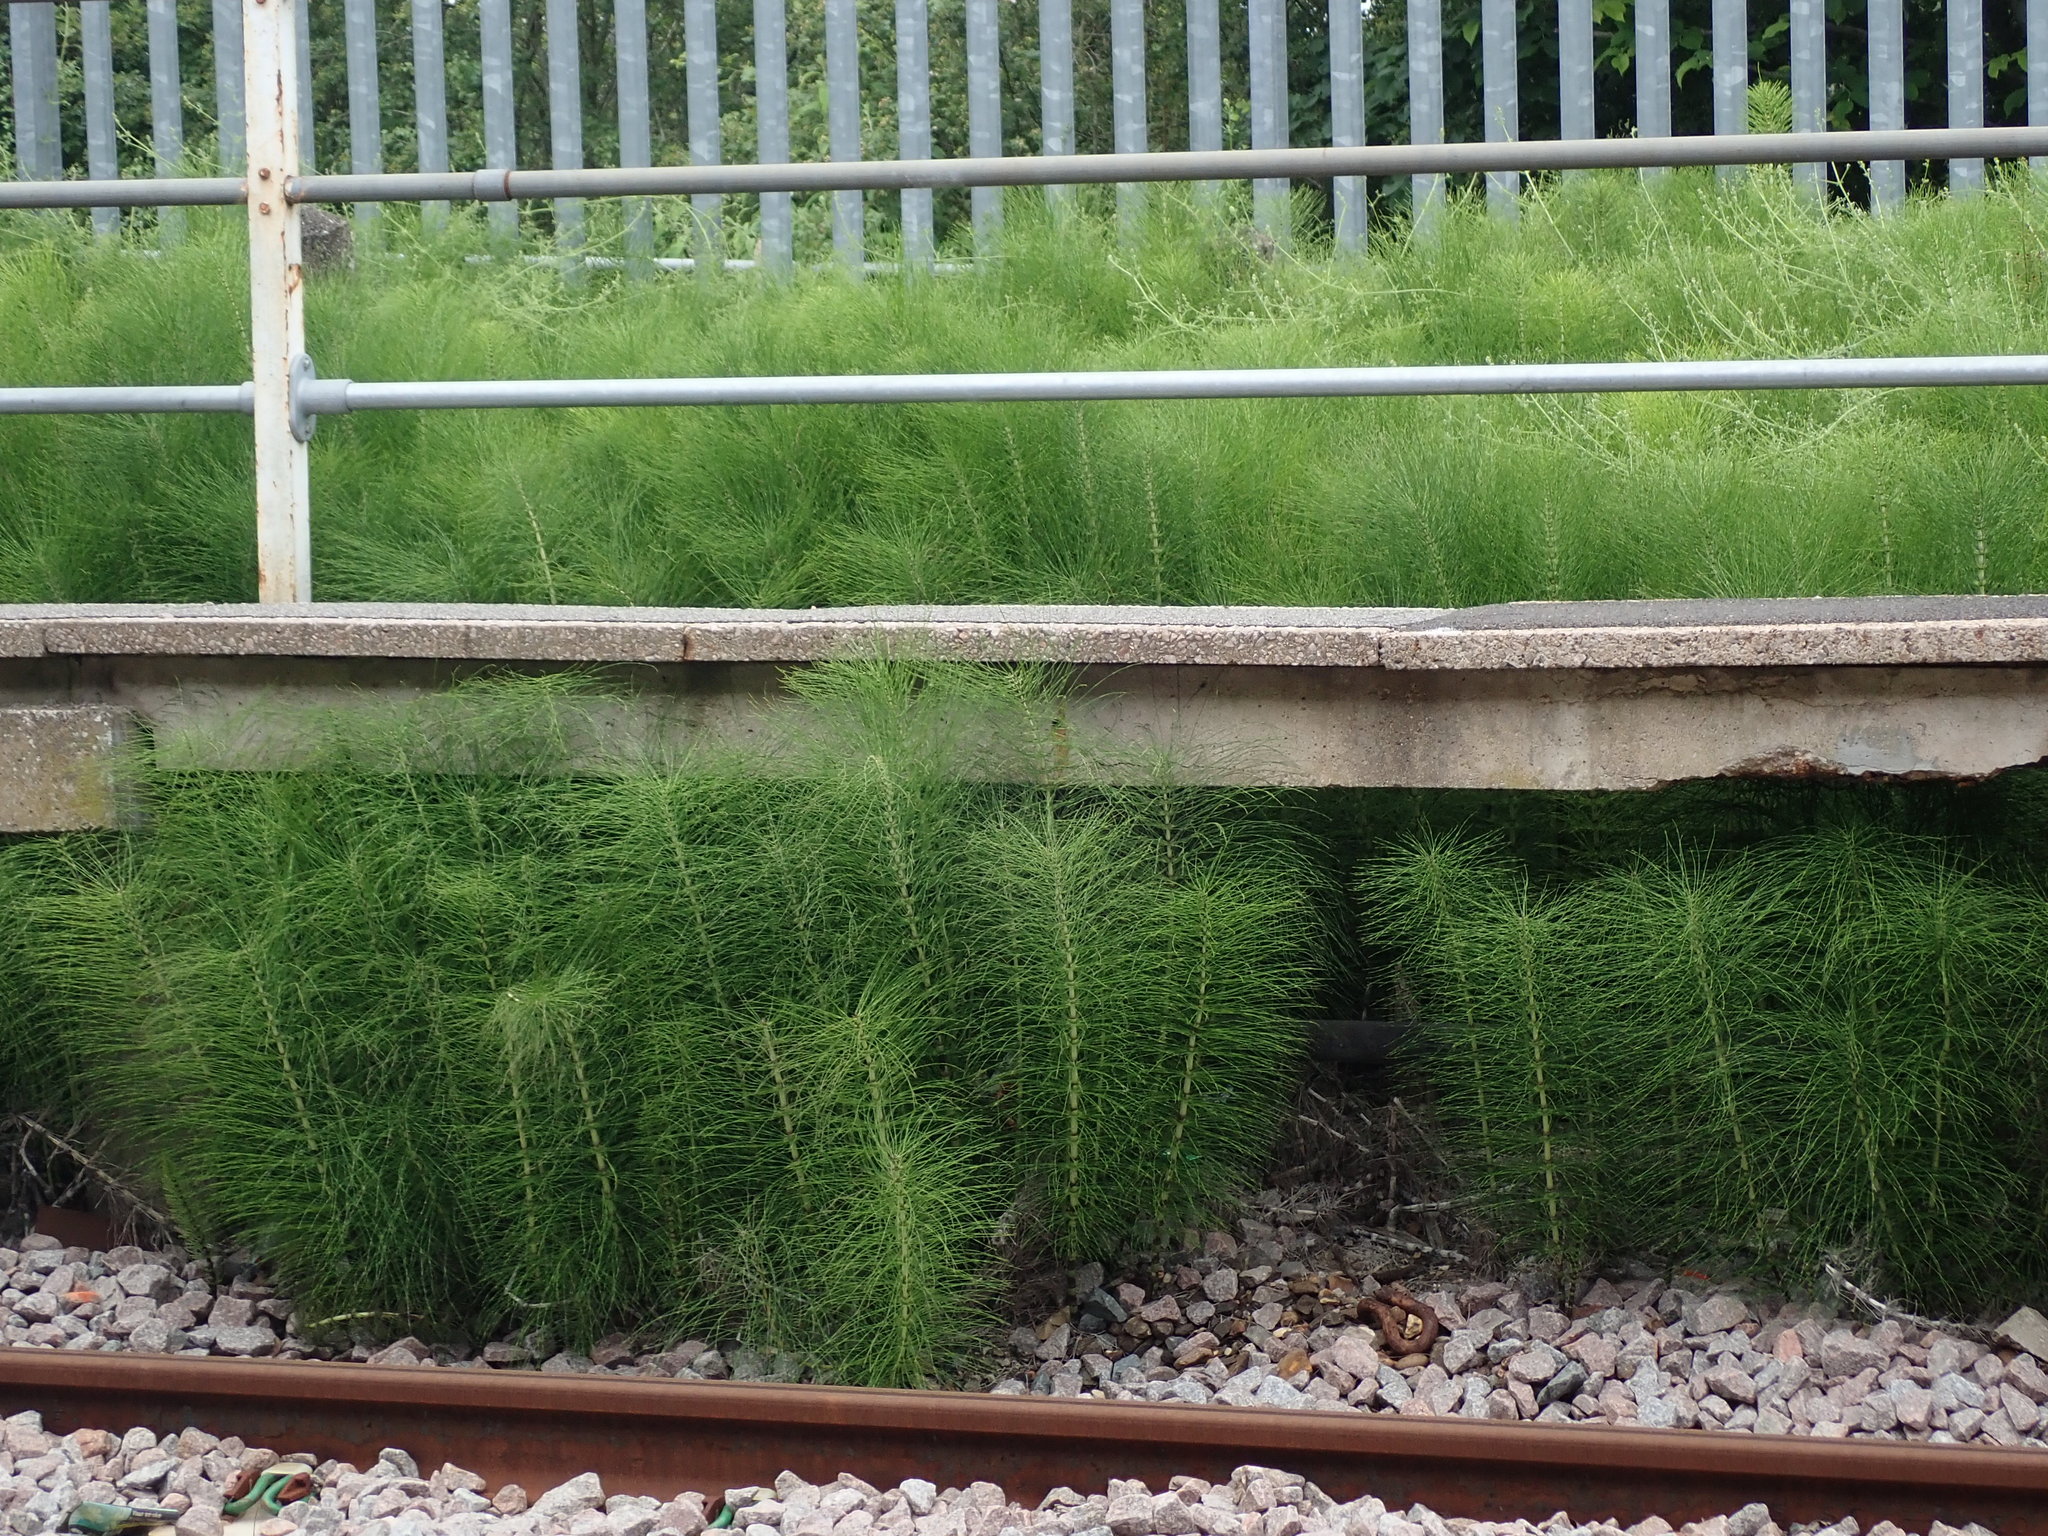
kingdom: Plantae
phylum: Tracheophyta
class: Polypodiopsida
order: Equisetales
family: Equisetaceae
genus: Equisetum
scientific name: Equisetum telmateia
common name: Great horsetail
